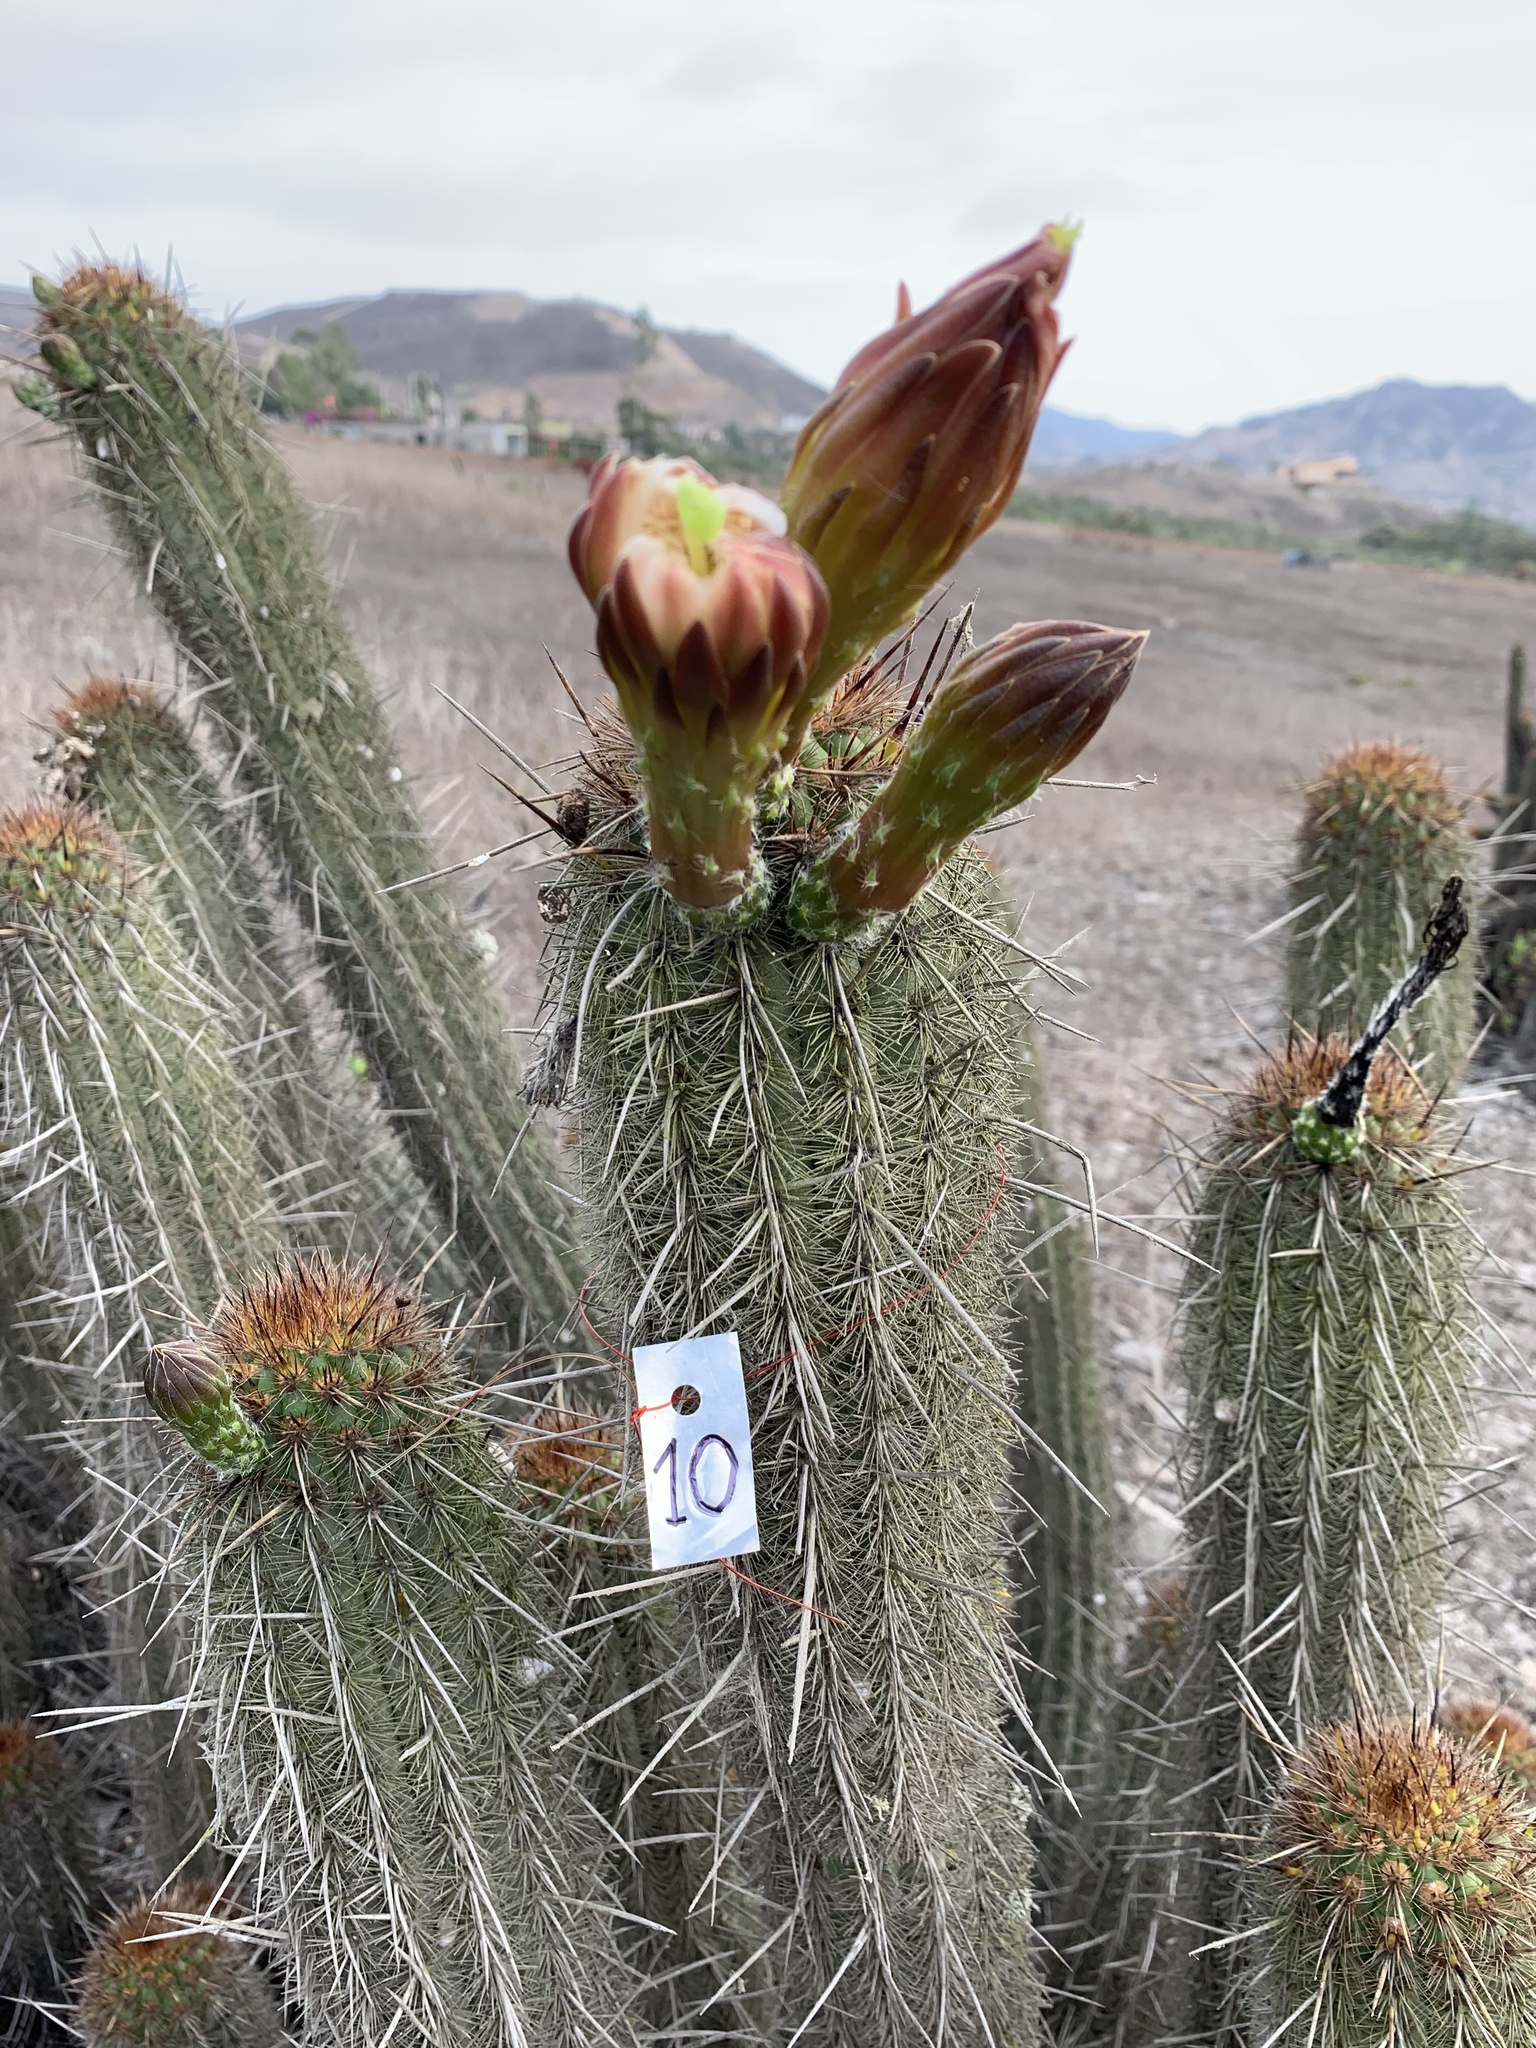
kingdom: Plantae
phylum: Tracheophyta
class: Magnoliopsida
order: Caryophyllales
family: Cactaceae
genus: Haageocereus
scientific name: Haageocereus acranthus
